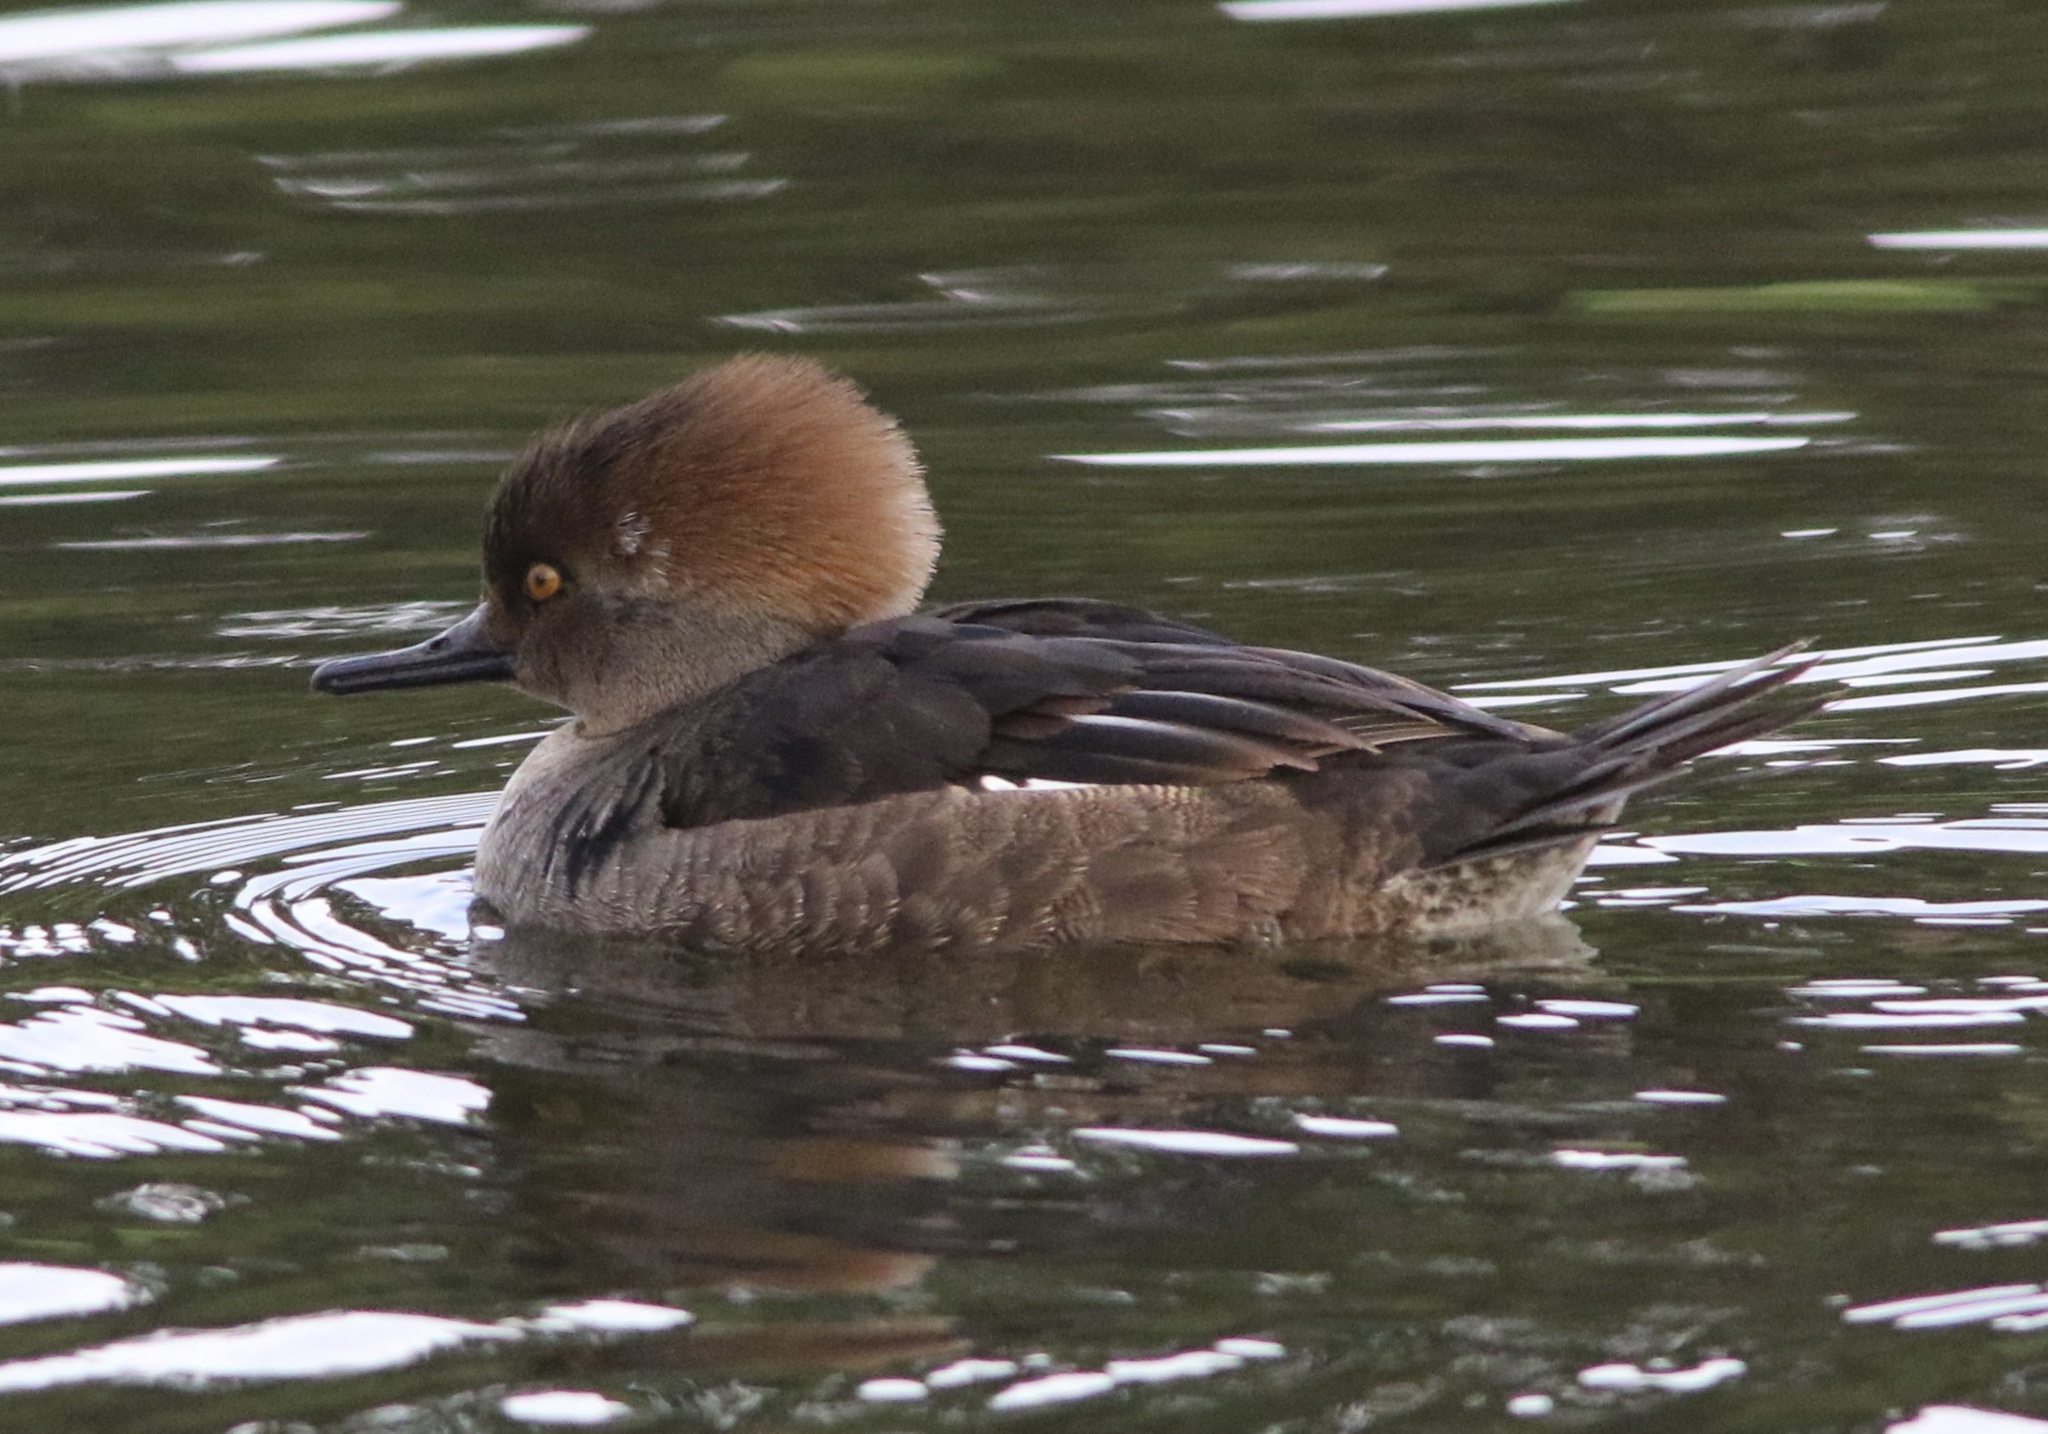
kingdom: Animalia
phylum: Chordata
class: Aves
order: Anseriformes
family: Anatidae
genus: Lophodytes
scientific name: Lophodytes cucullatus
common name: Hooded merganser
